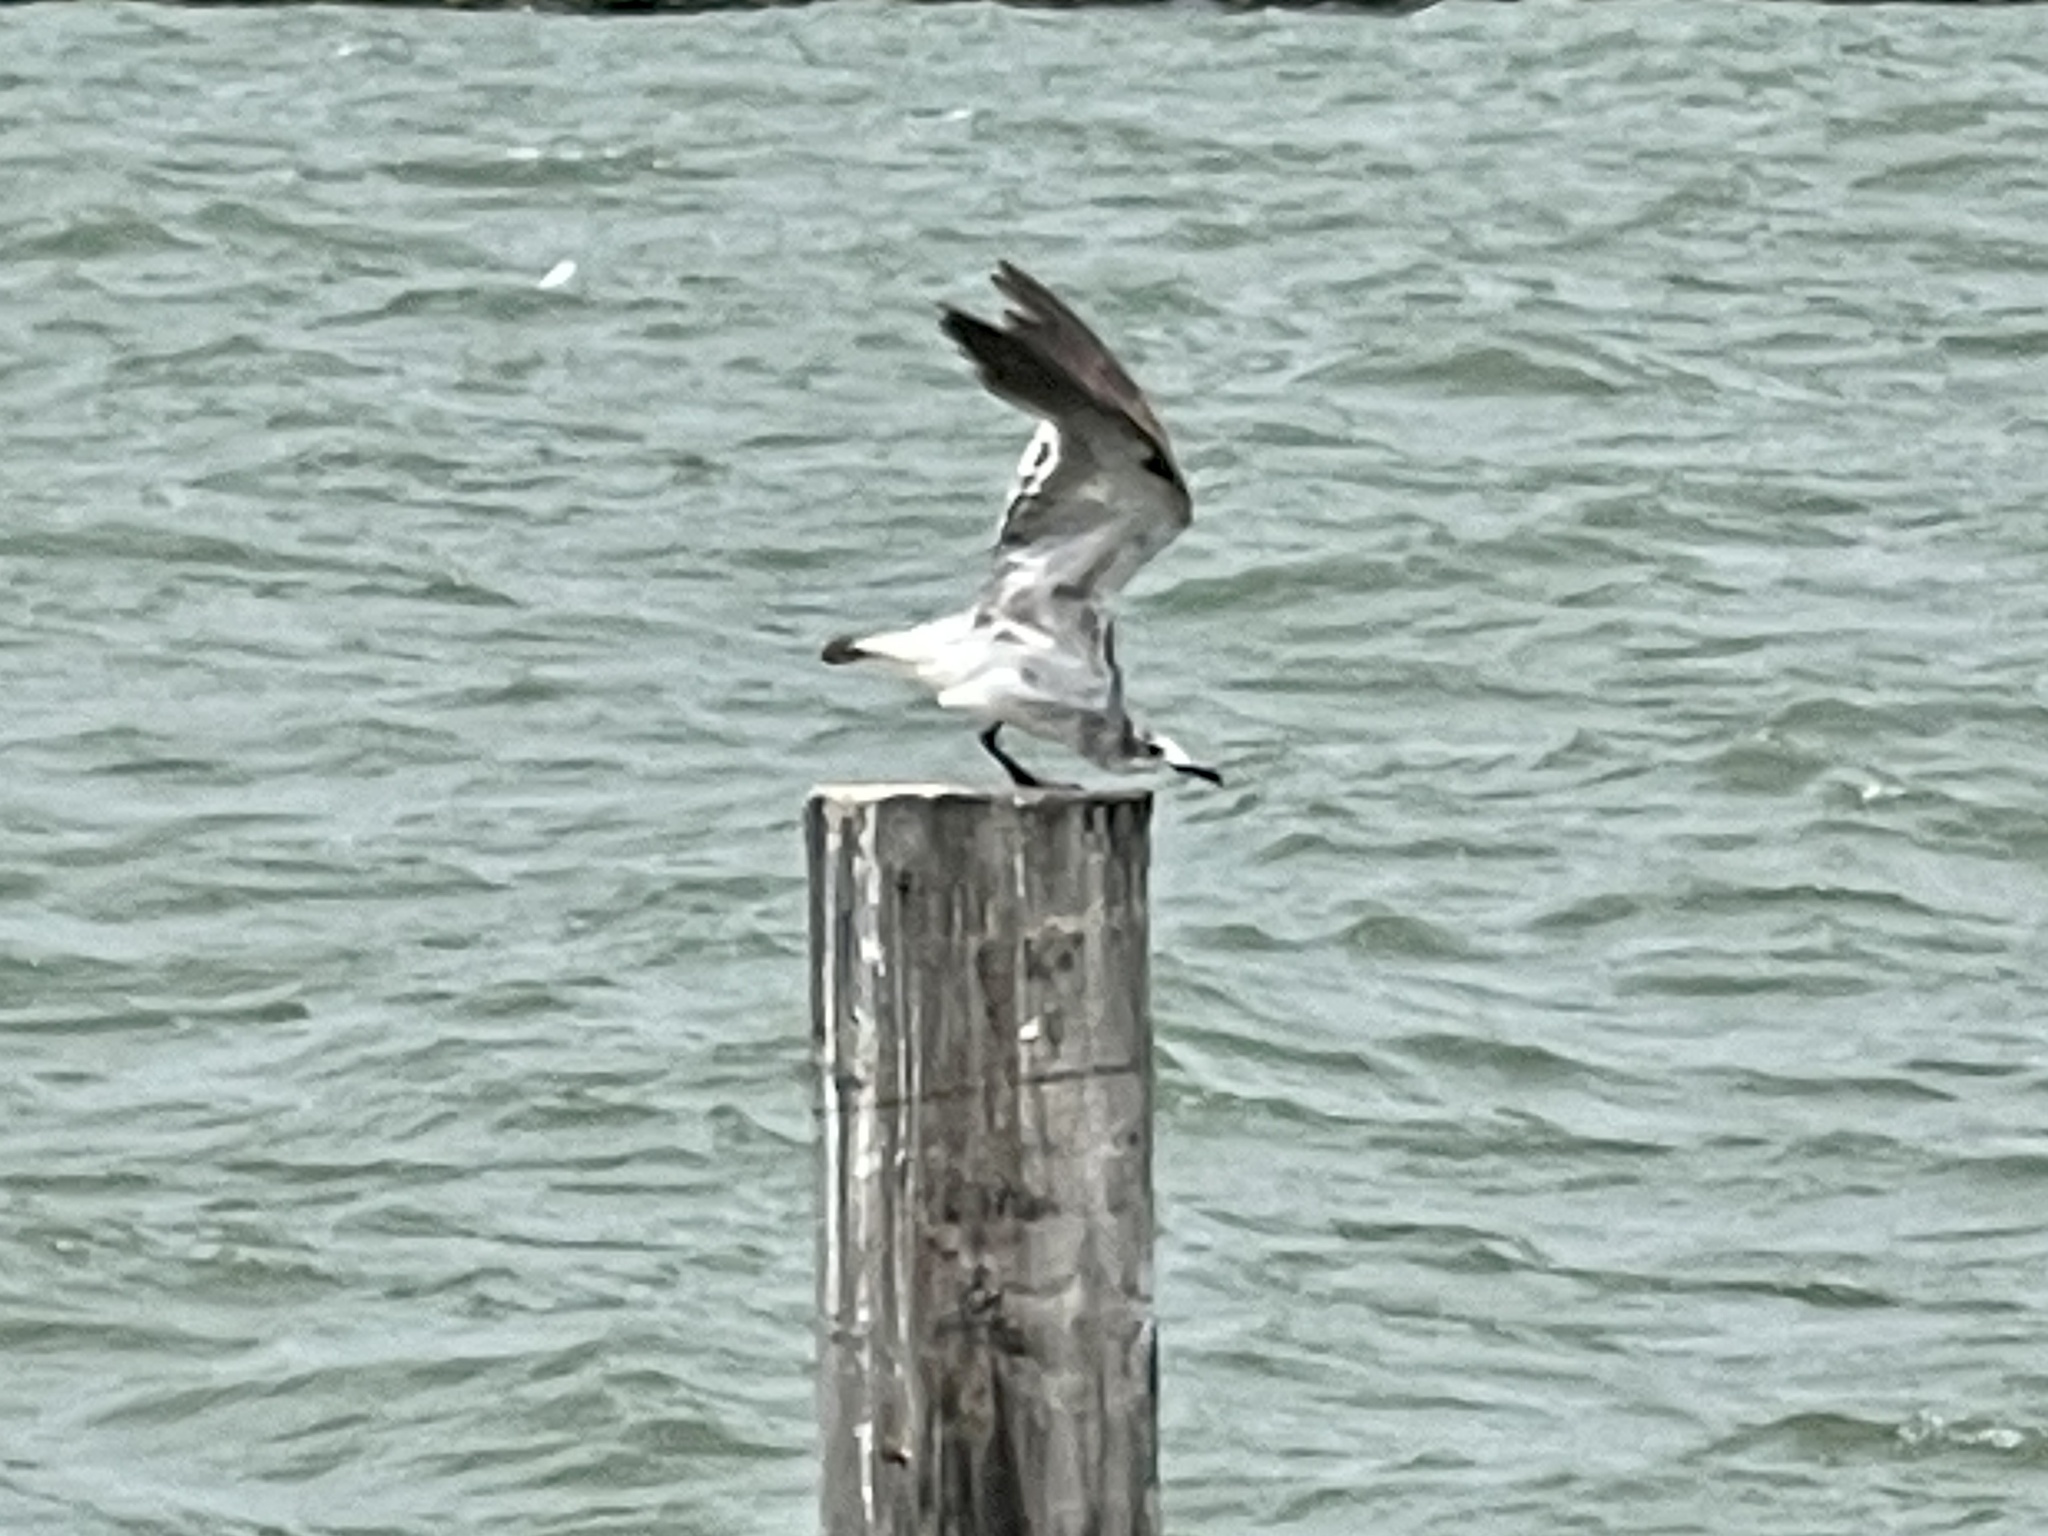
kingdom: Animalia
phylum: Chordata
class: Aves
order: Charadriiformes
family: Laridae
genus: Leucophaeus
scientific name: Leucophaeus atricilla
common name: Laughing gull
